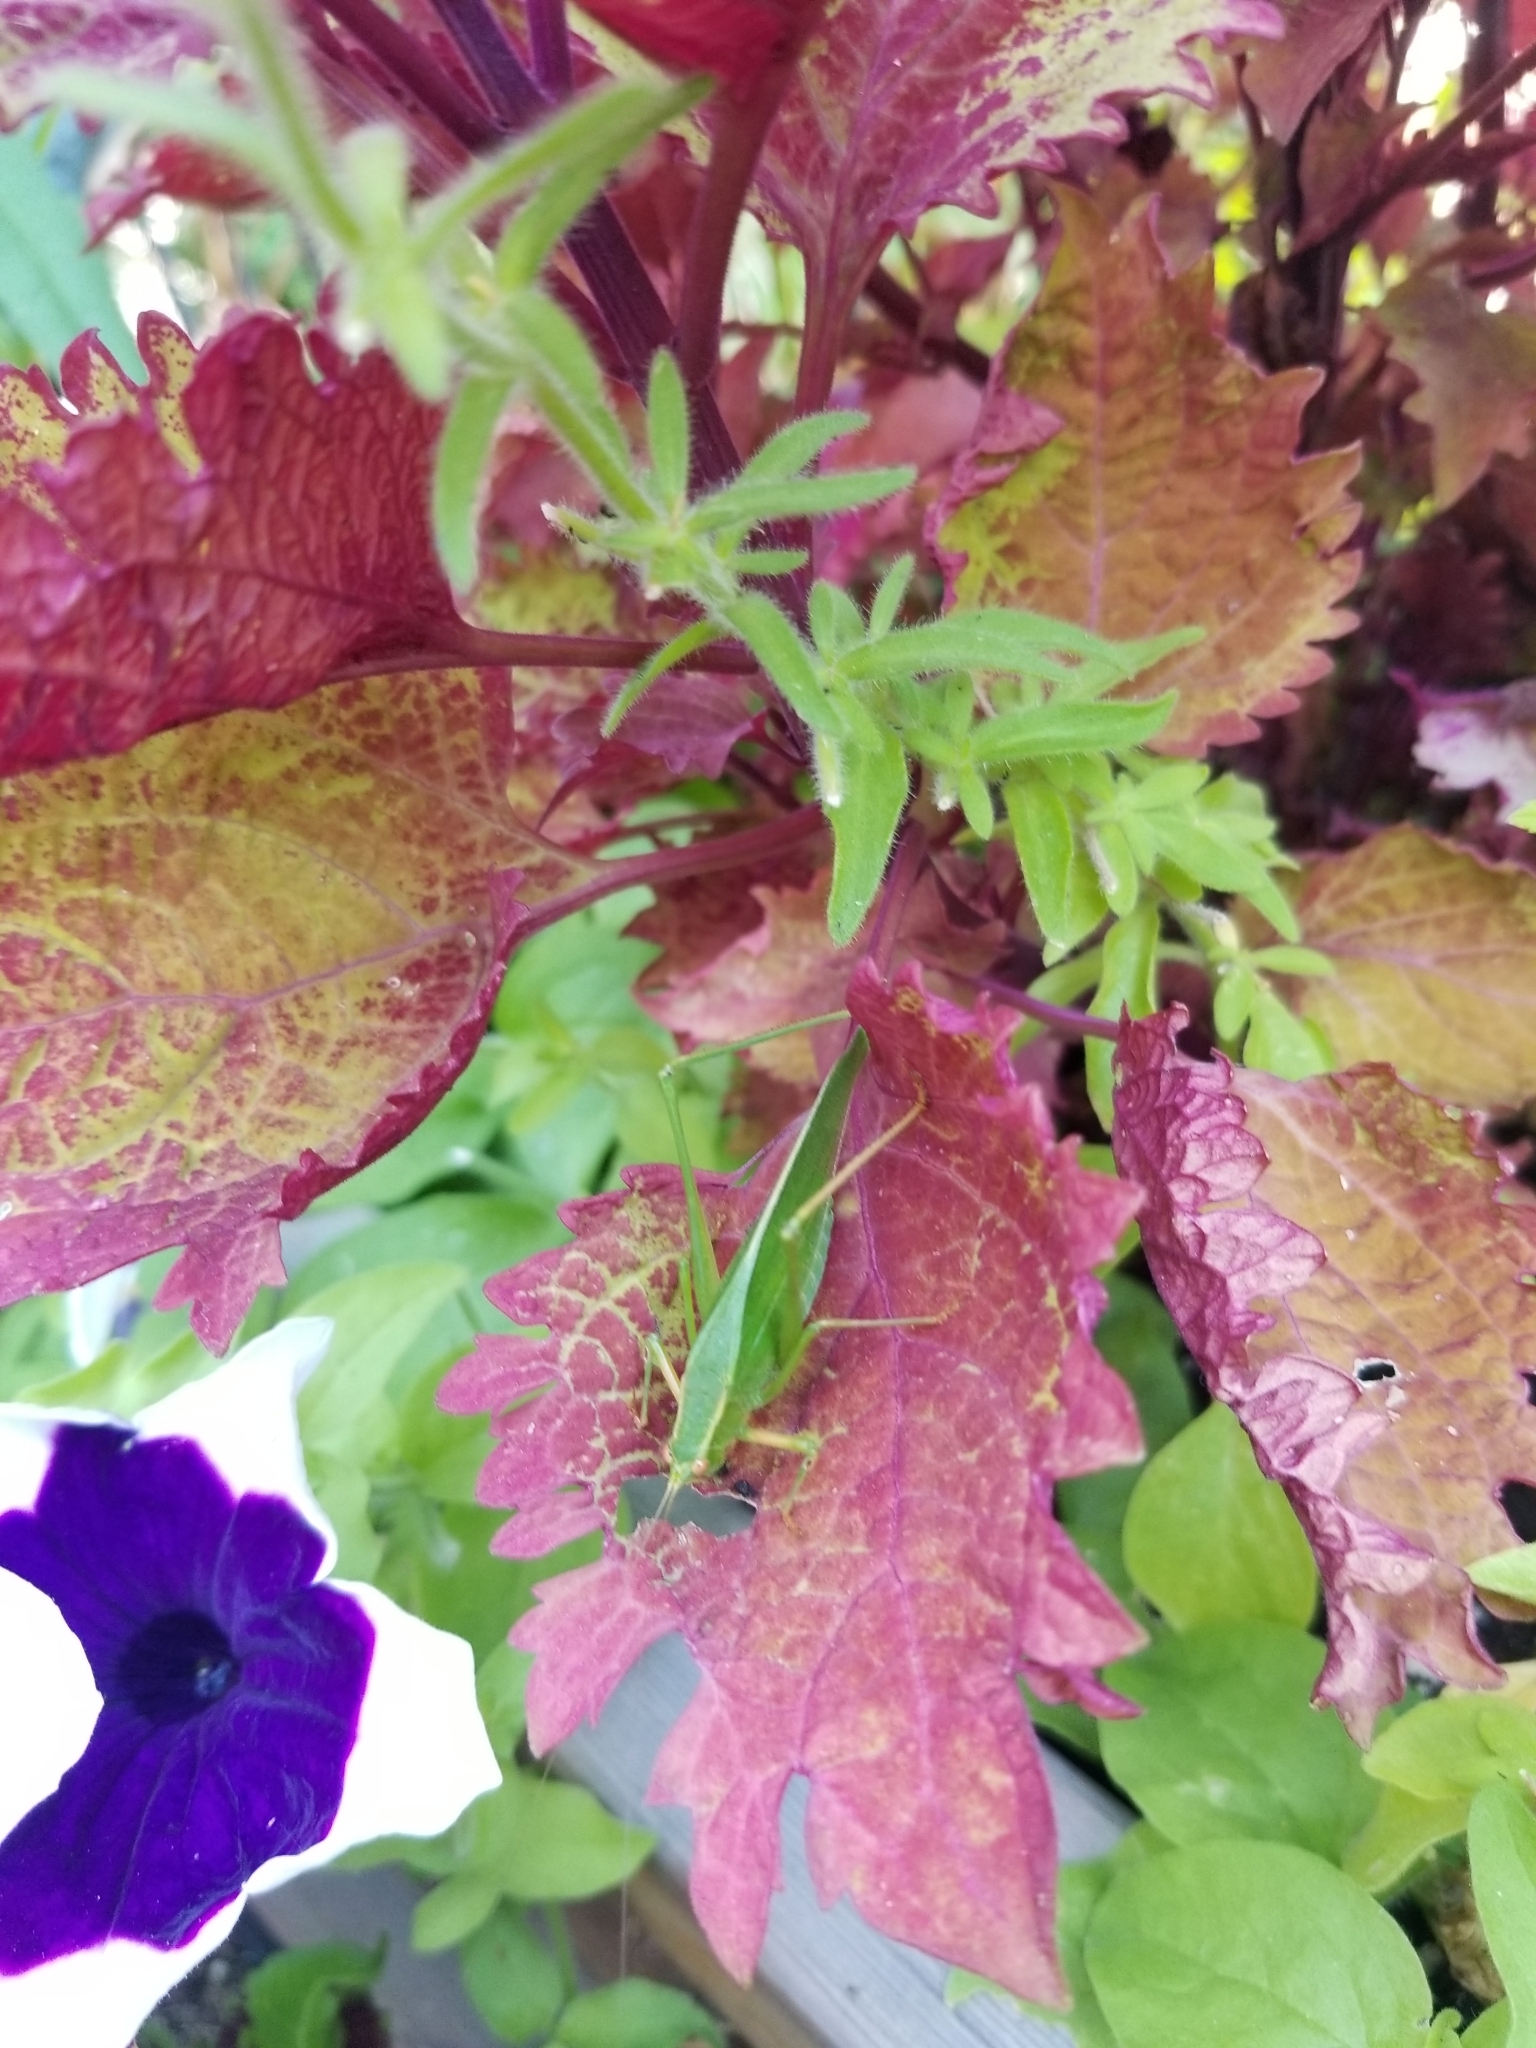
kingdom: Animalia
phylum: Arthropoda
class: Insecta
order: Orthoptera
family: Tettigoniidae
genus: Scudderia
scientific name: Scudderia furcata
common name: Fork-tailed bush katydid
